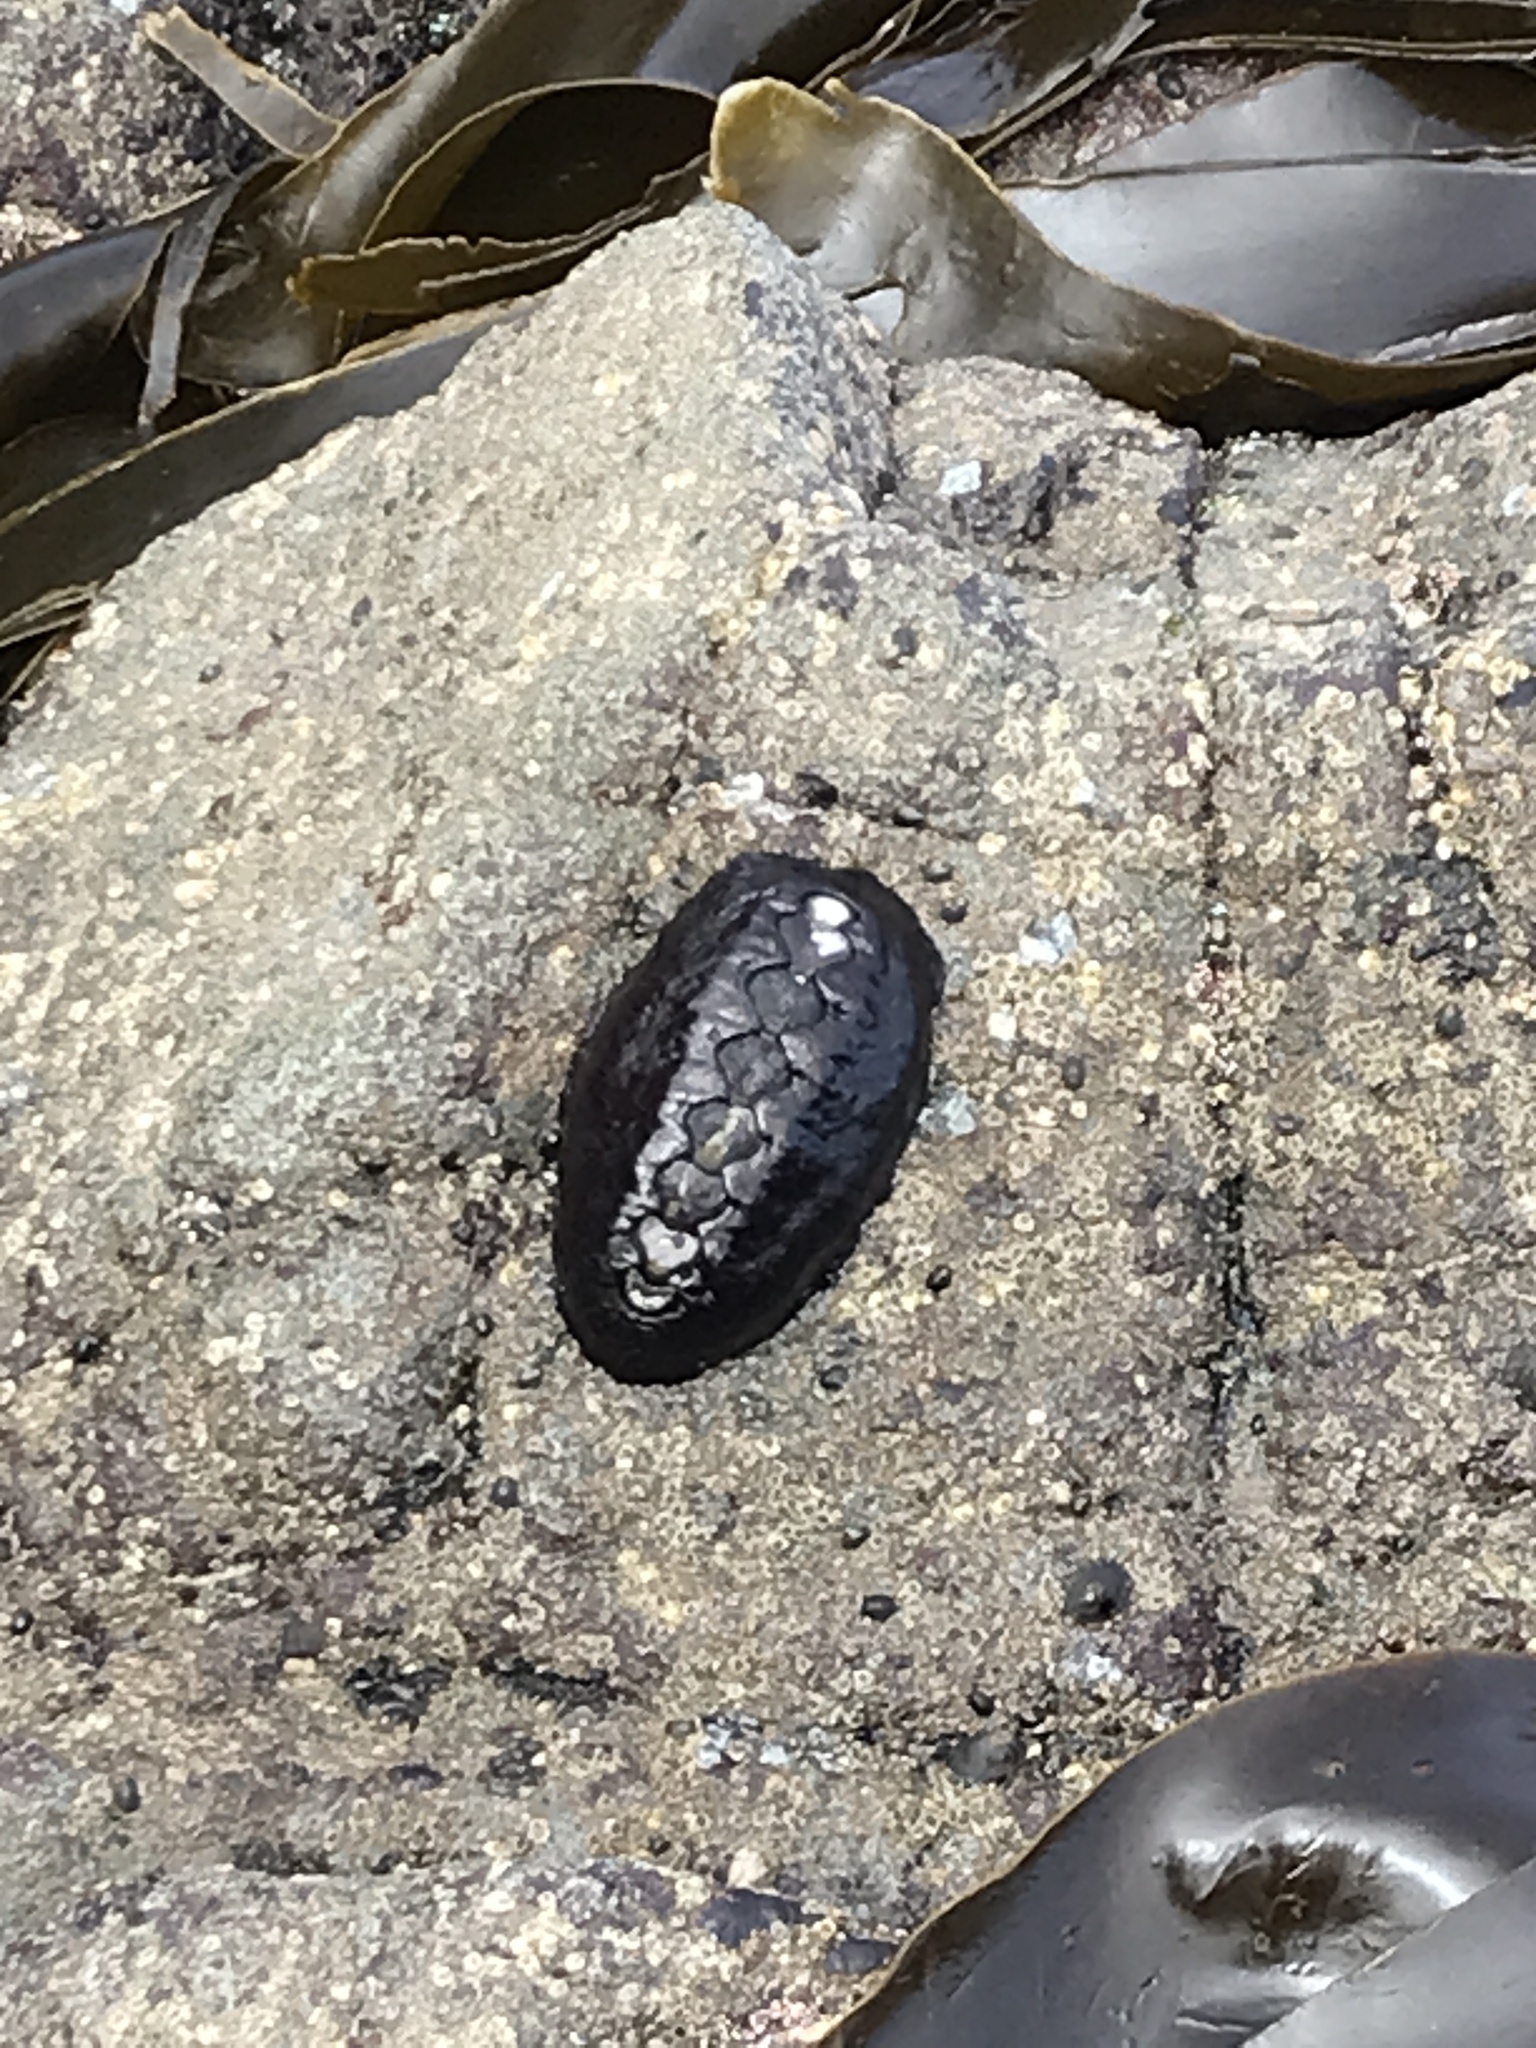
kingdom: Animalia
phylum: Mollusca
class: Polyplacophora
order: Chitonida
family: Mopaliidae
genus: Katharina
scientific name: Katharina tunicata
